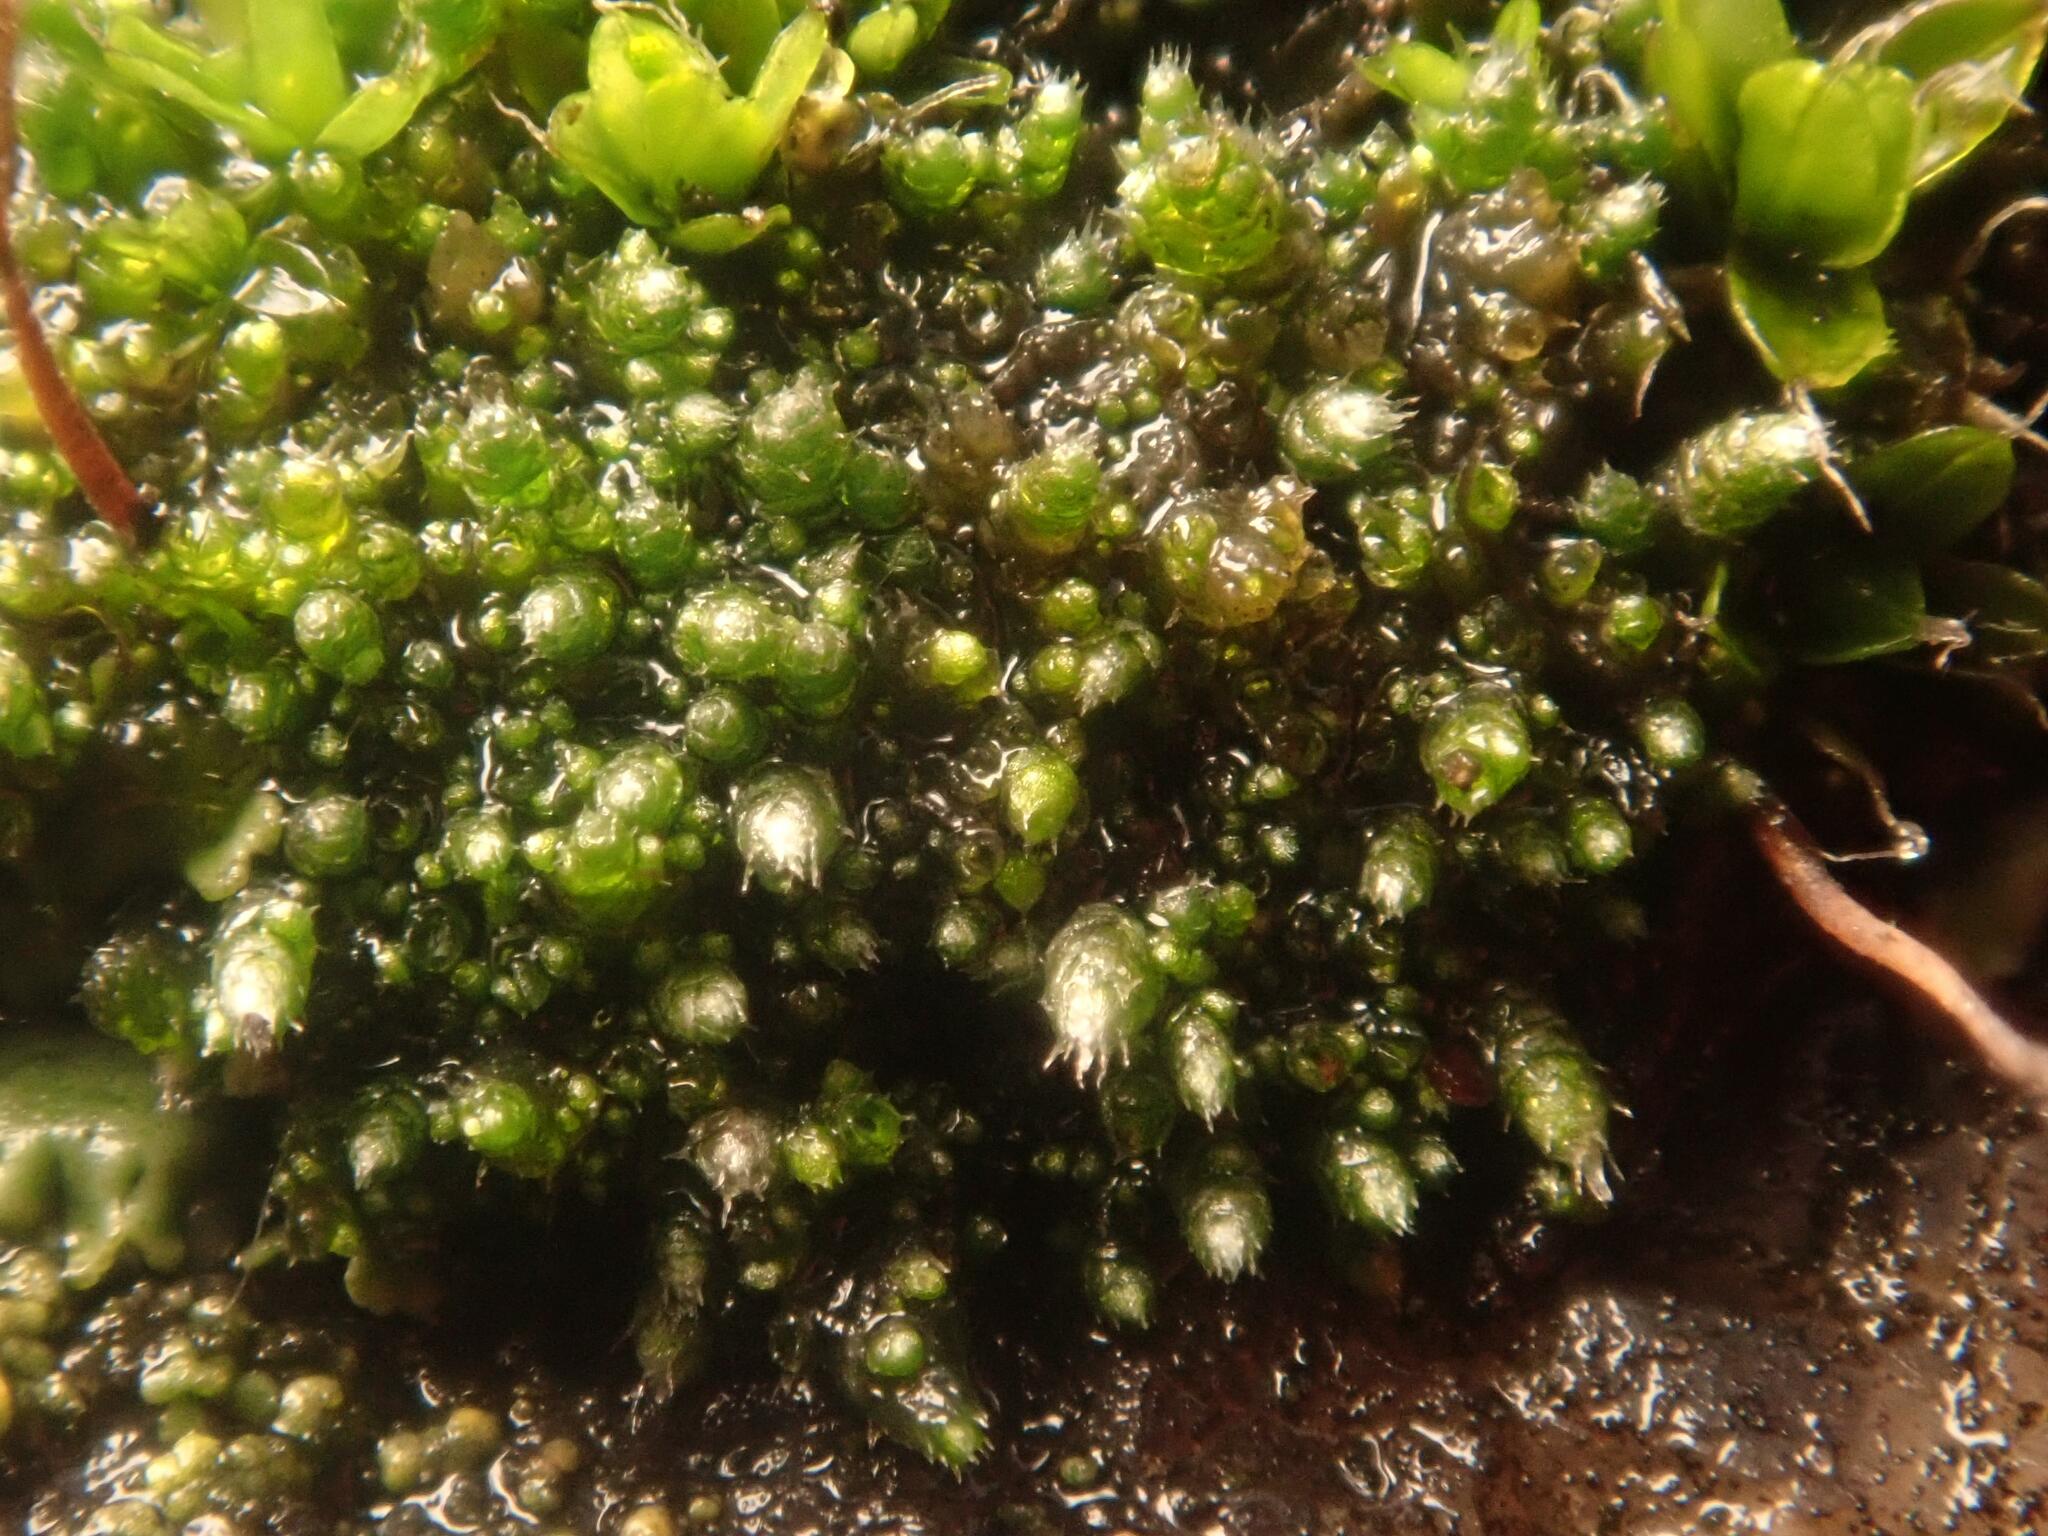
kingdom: Plantae
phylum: Bryophyta
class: Bryopsida
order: Bryales
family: Bryaceae
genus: Bryum
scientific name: Bryum argenteum
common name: Silver-moss
